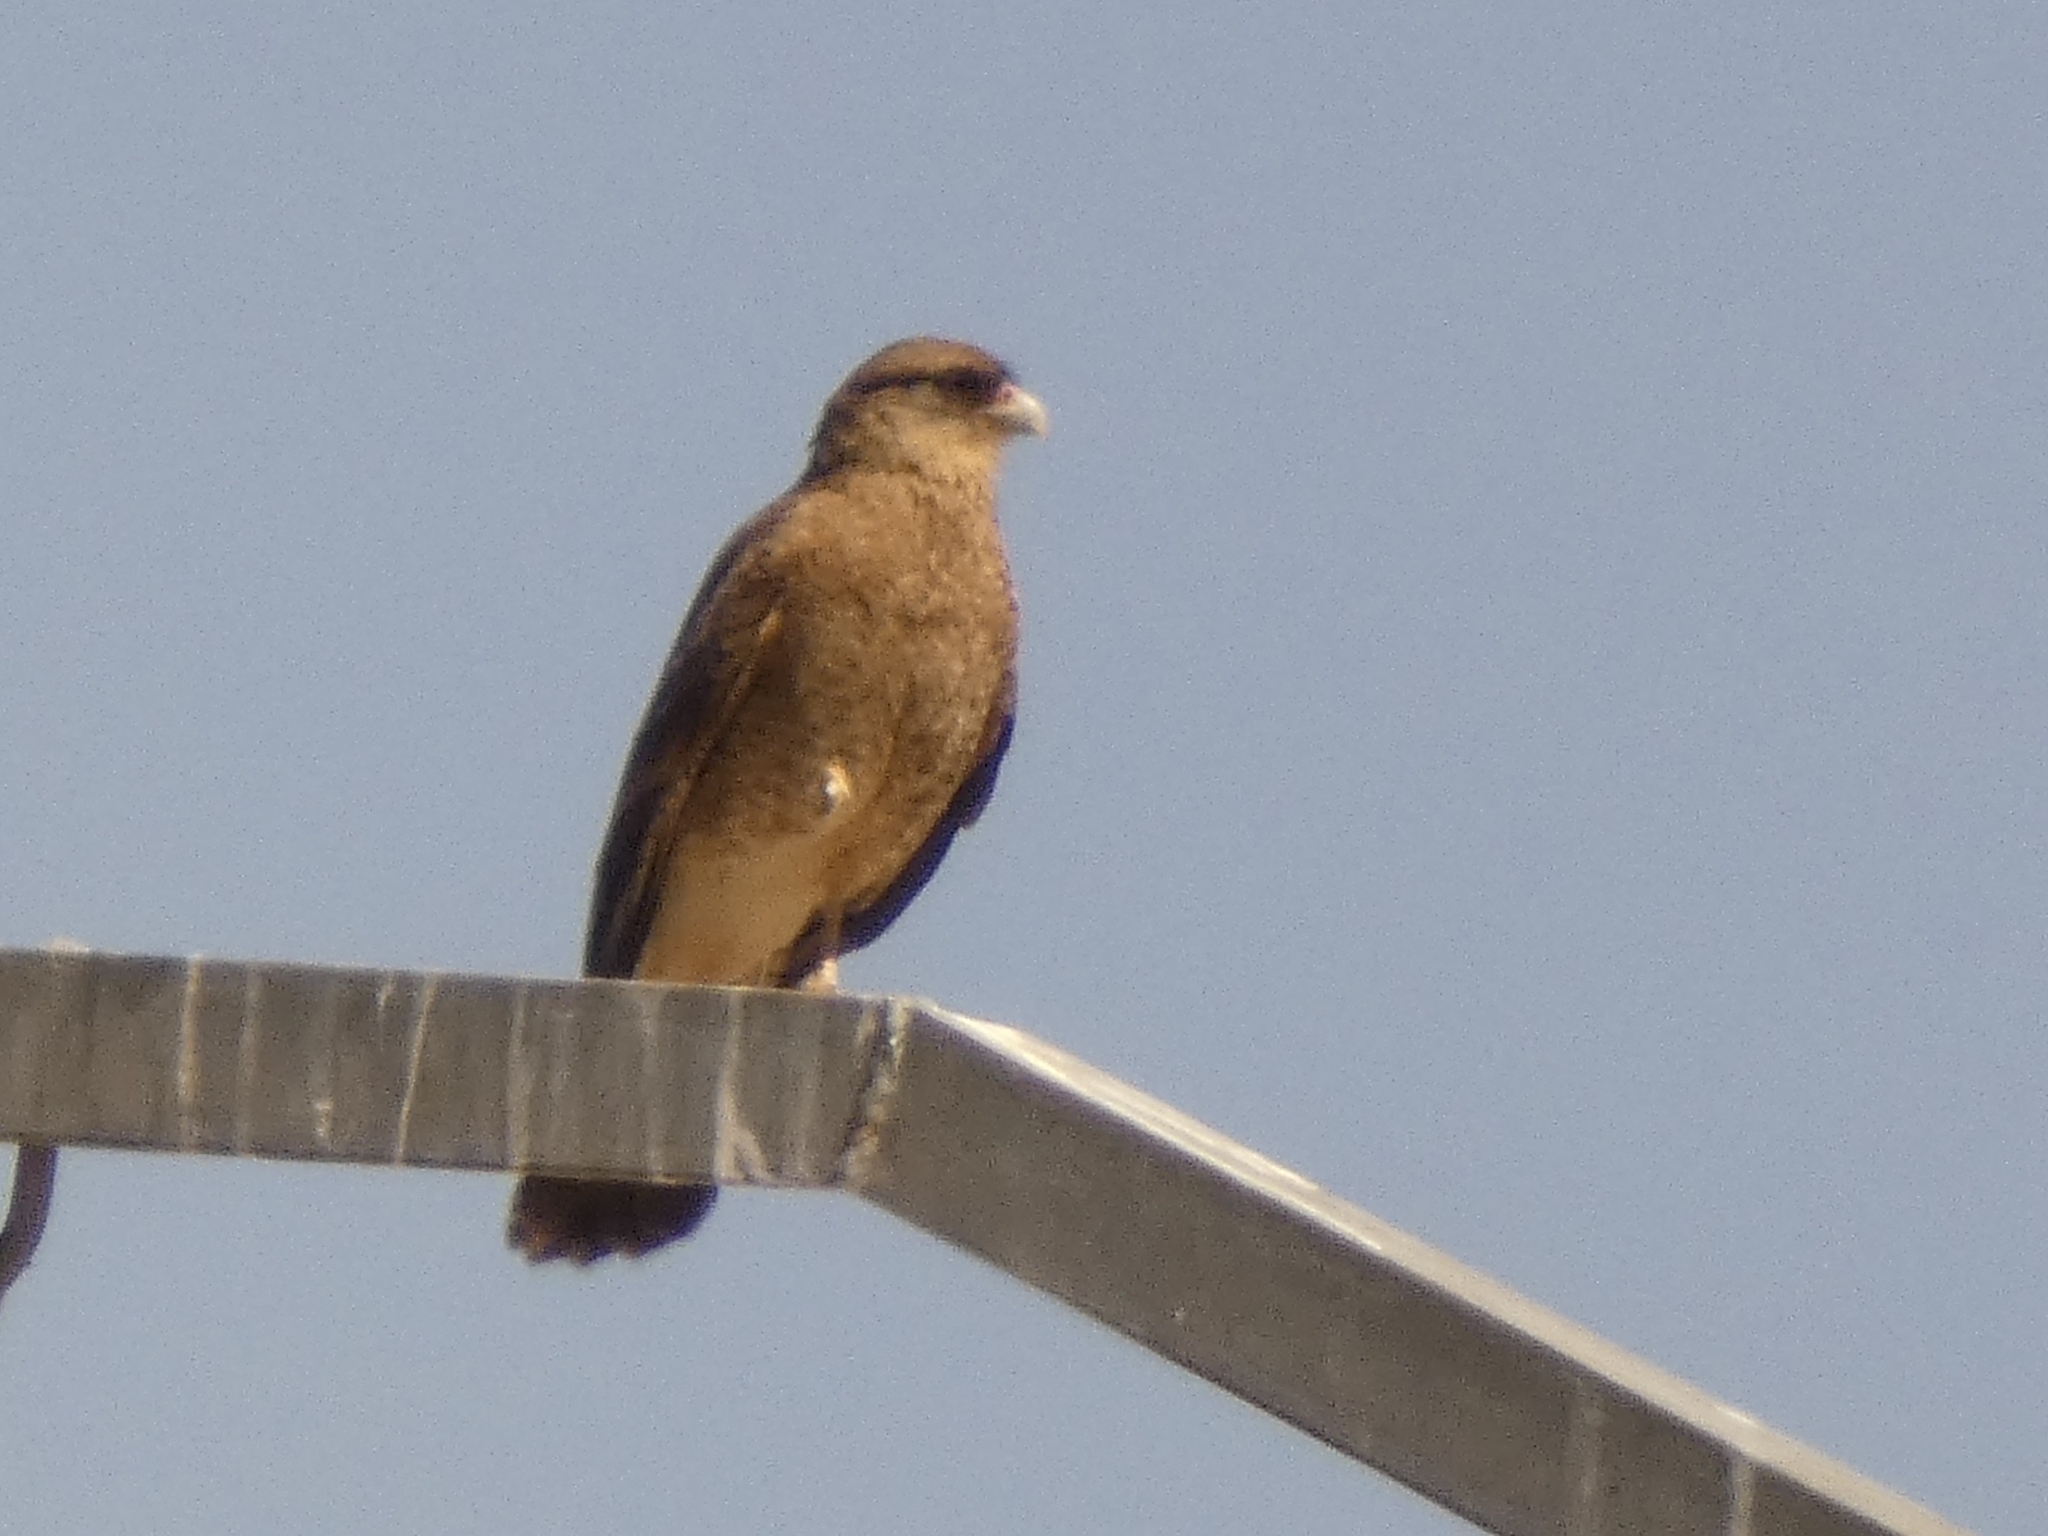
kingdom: Animalia
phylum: Chordata
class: Aves
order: Falconiformes
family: Falconidae
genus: Daptrius
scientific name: Daptrius
